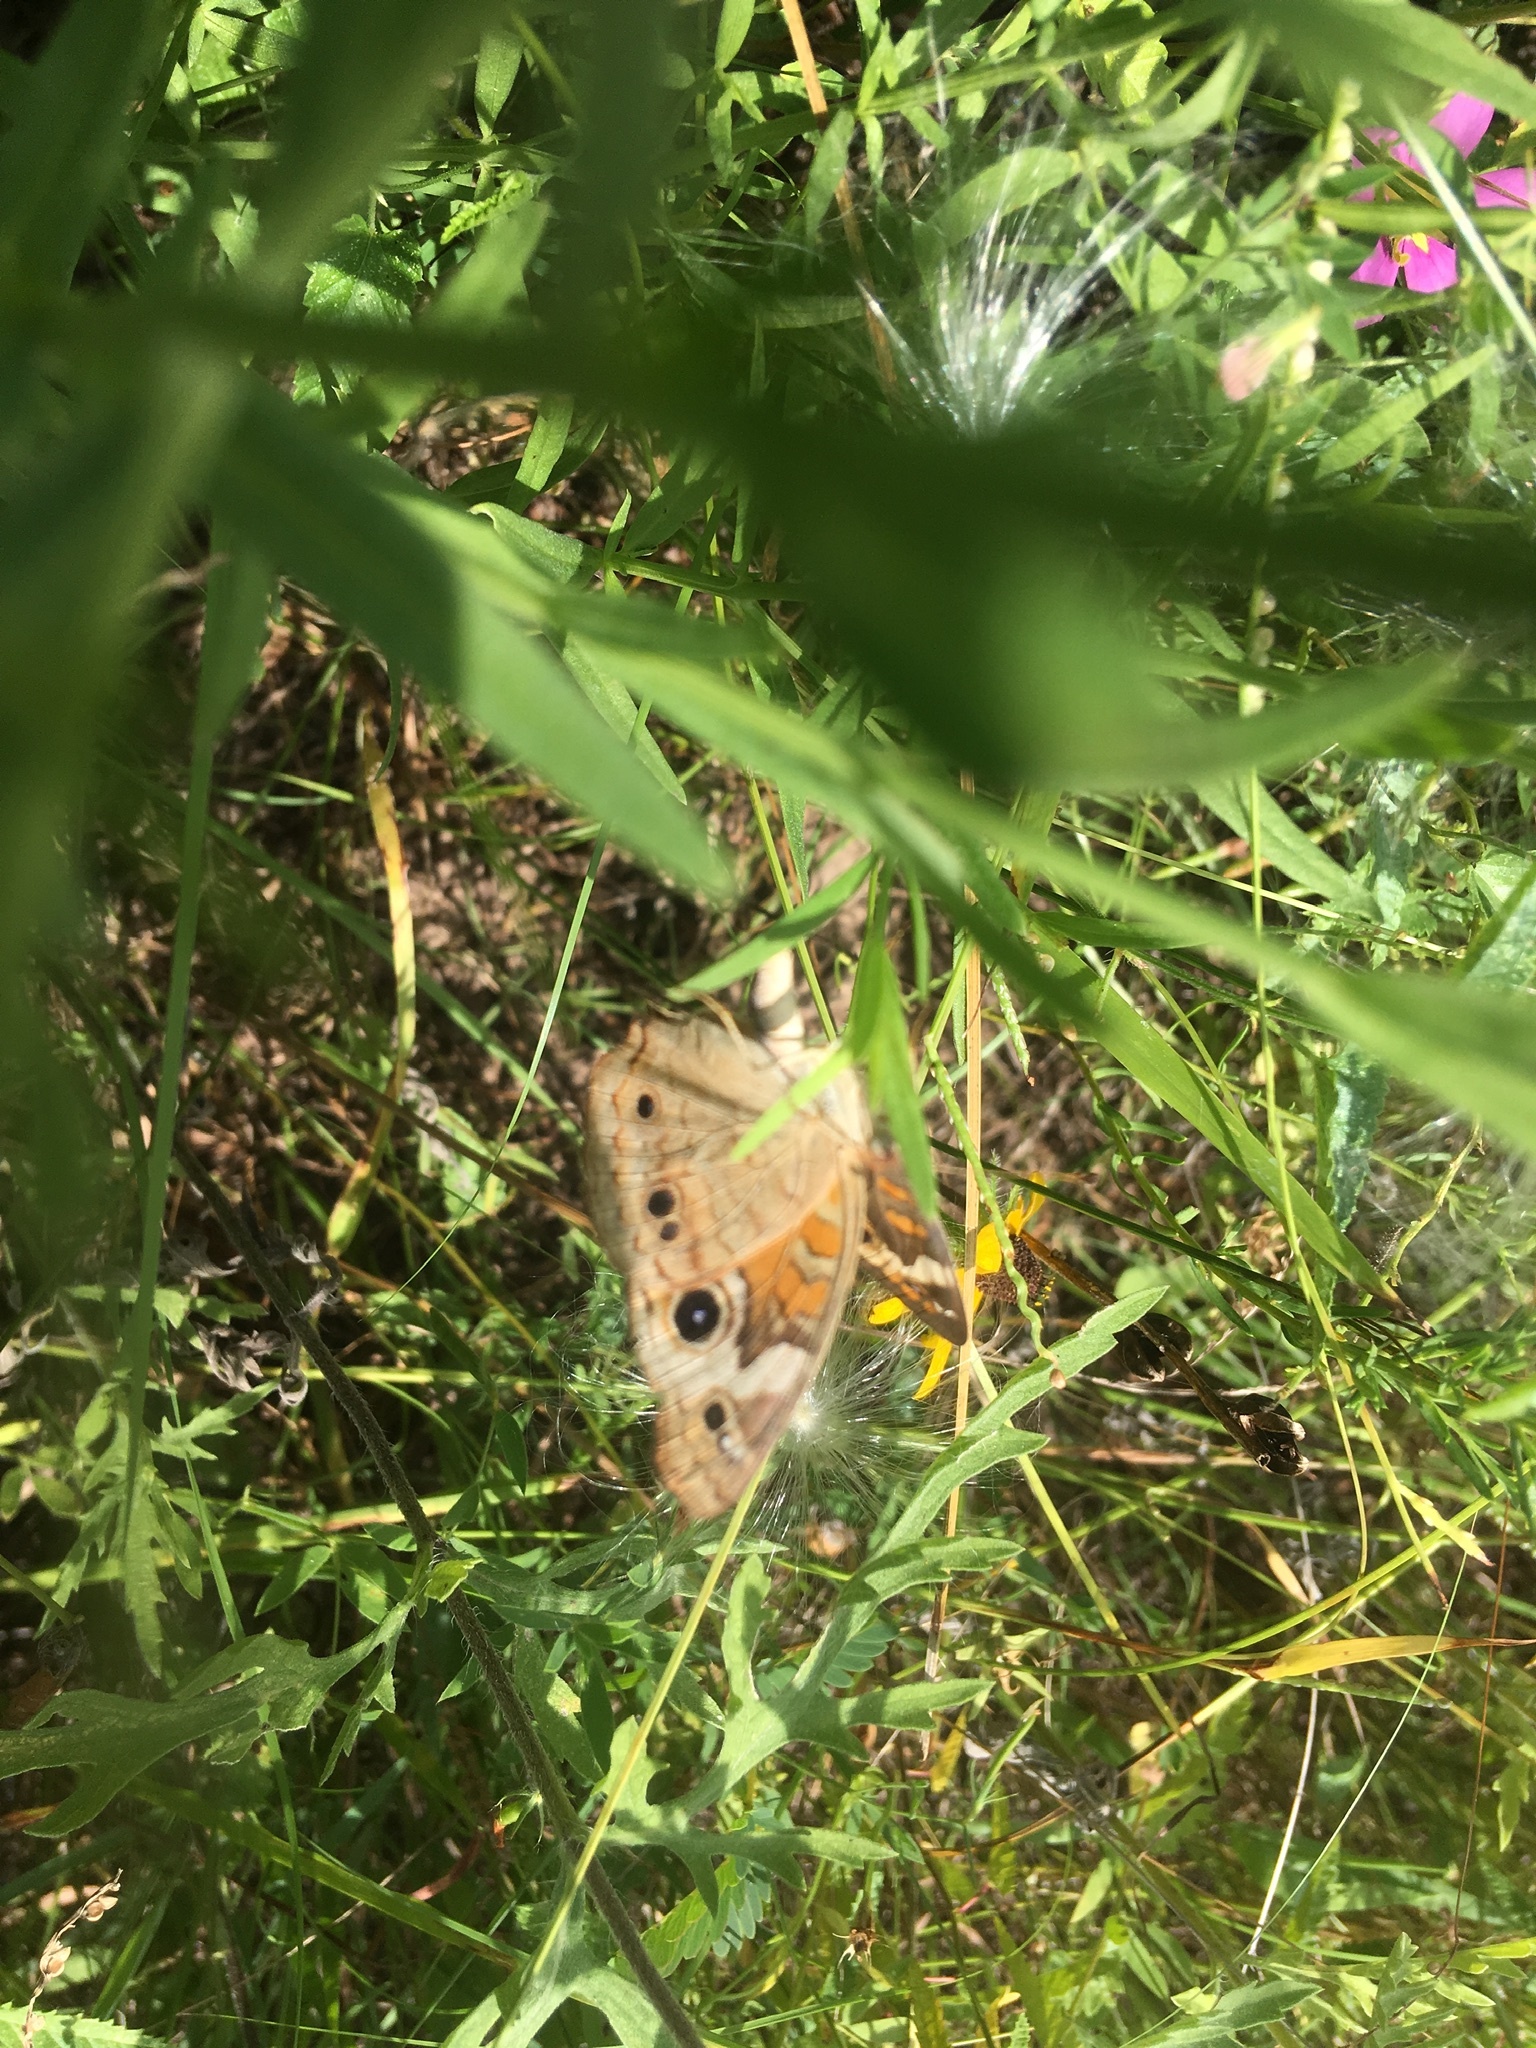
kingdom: Animalia
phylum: Arthropoda
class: Insecta
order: Lepidoptera
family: Nymphalidae
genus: Junonia
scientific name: Junonia coenia
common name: Common buckeye
